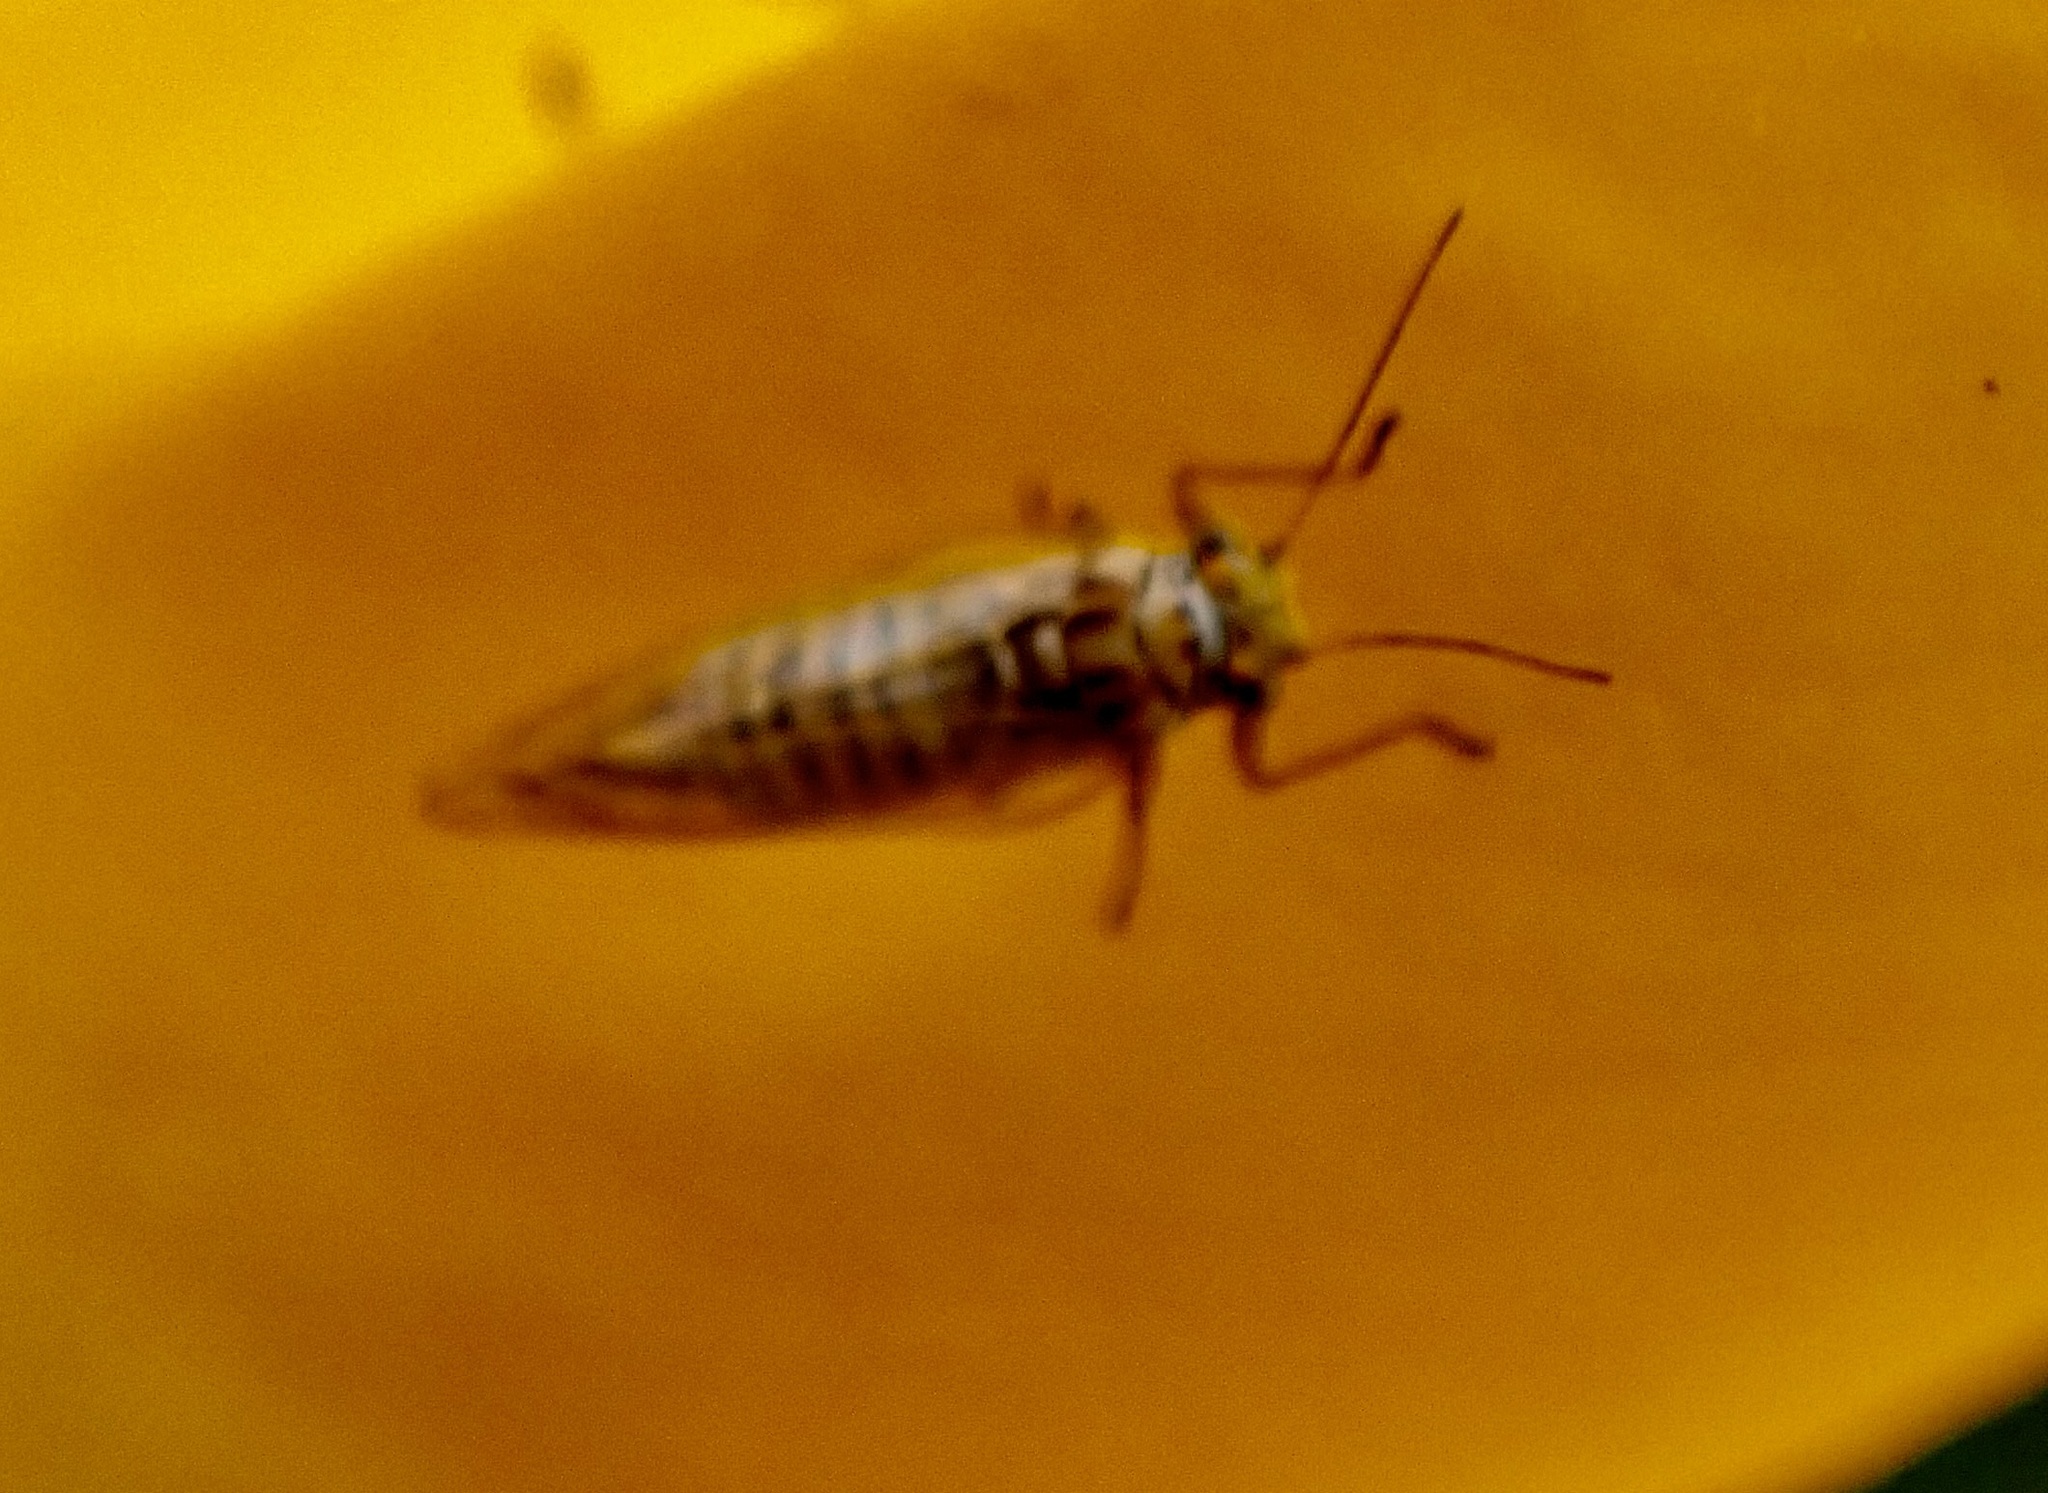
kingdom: Animalia
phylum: Arthropoda
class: Insecta
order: Hemiptera
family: Psyllidae
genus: Arytaina
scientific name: Arytaina genistae
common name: Psyllid
